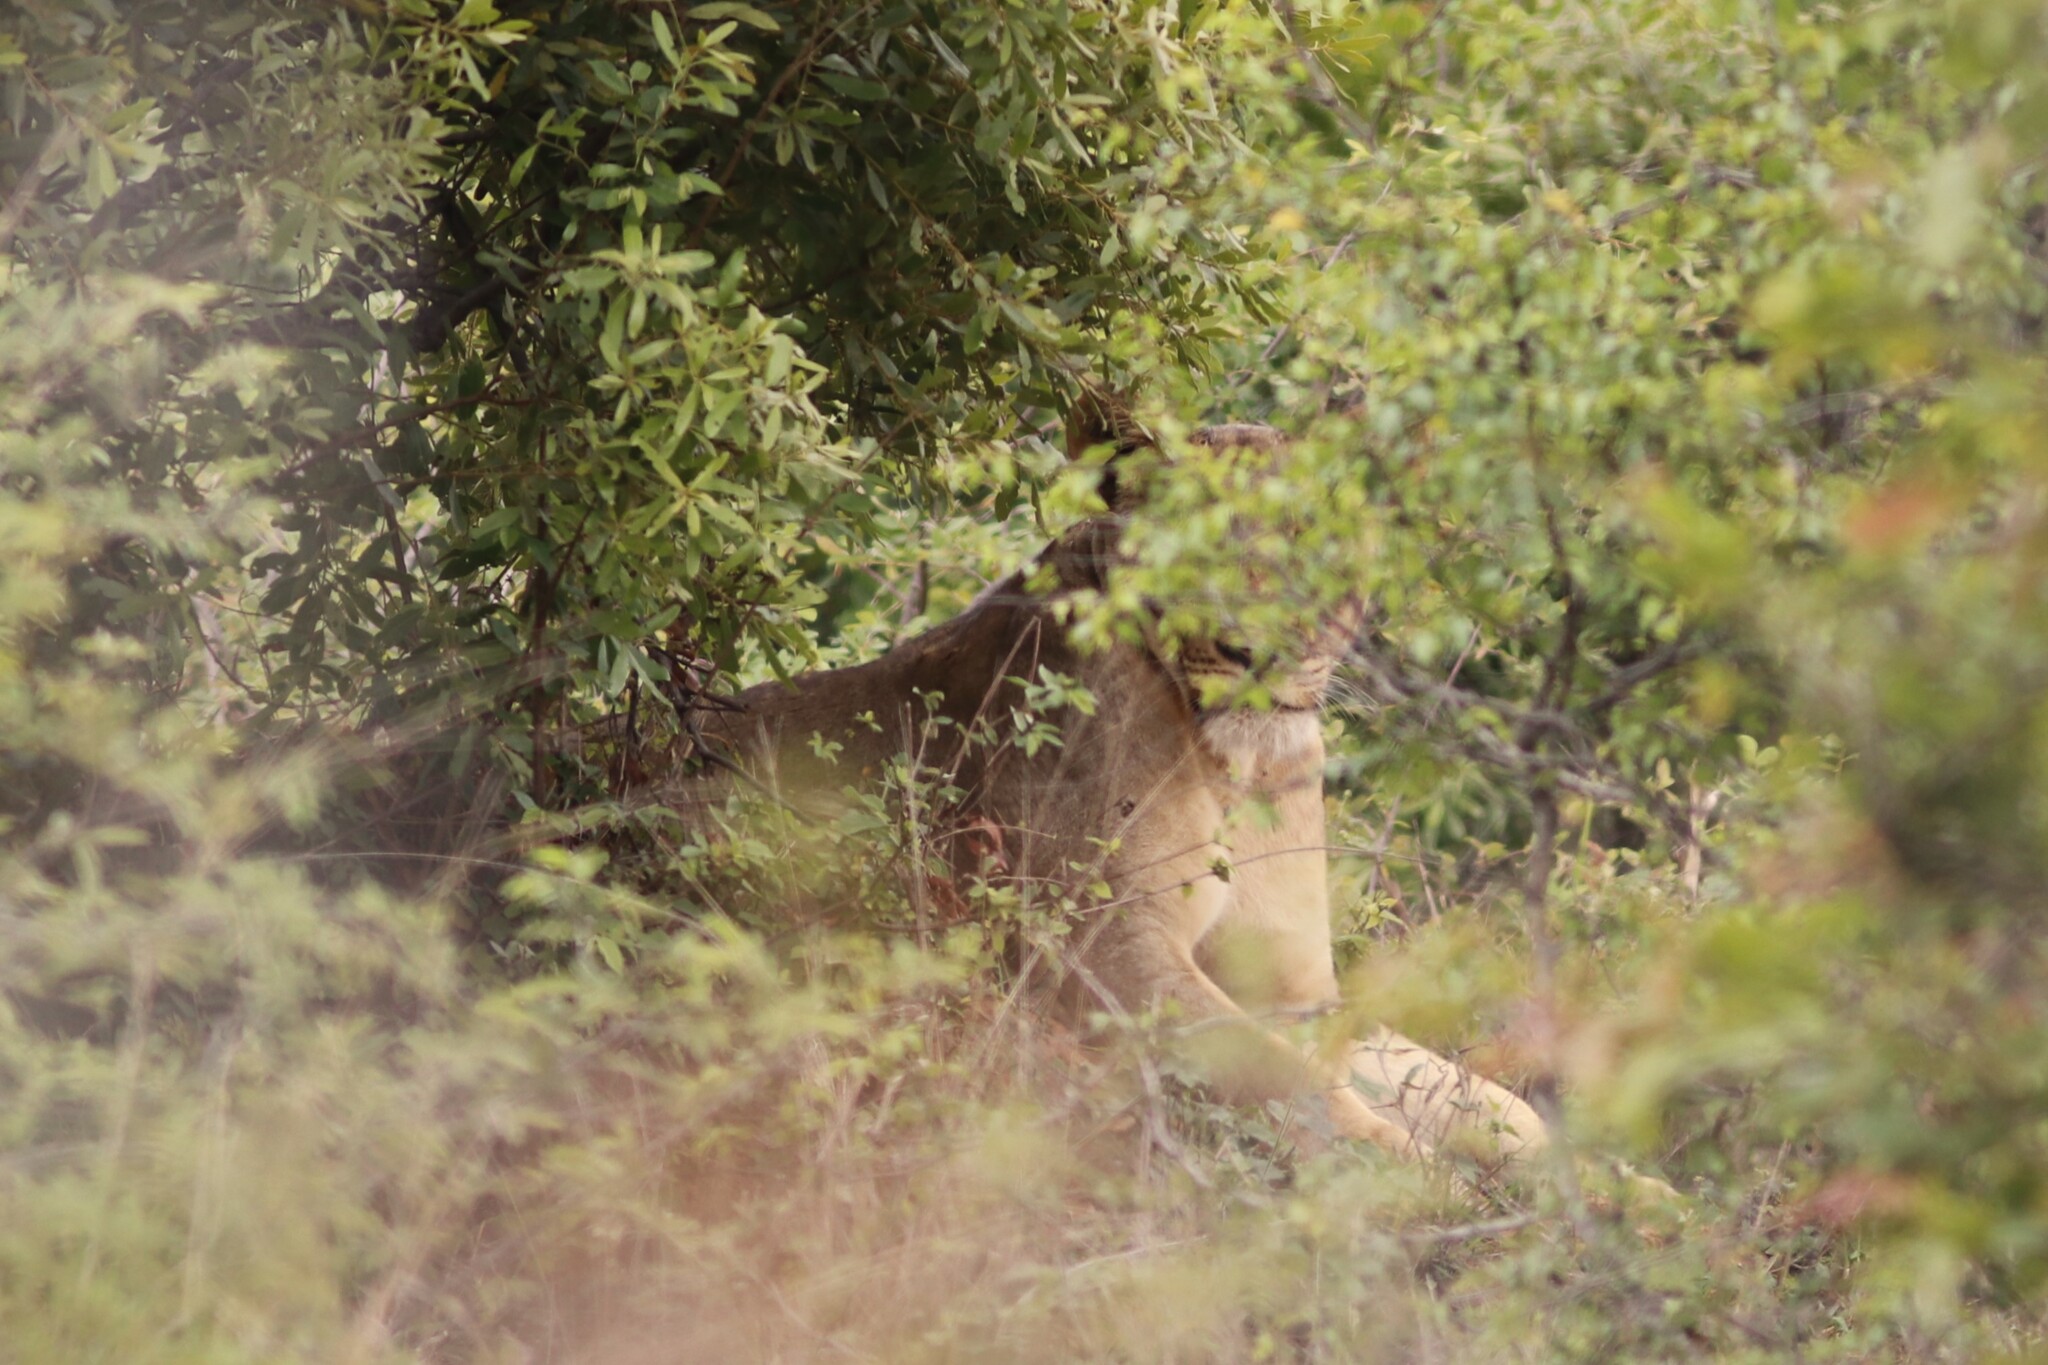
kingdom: Animalia
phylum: Chordata
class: Mammalia
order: Carnivora
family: Felidae
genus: Panthera
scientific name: Panthera leo
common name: Lion
